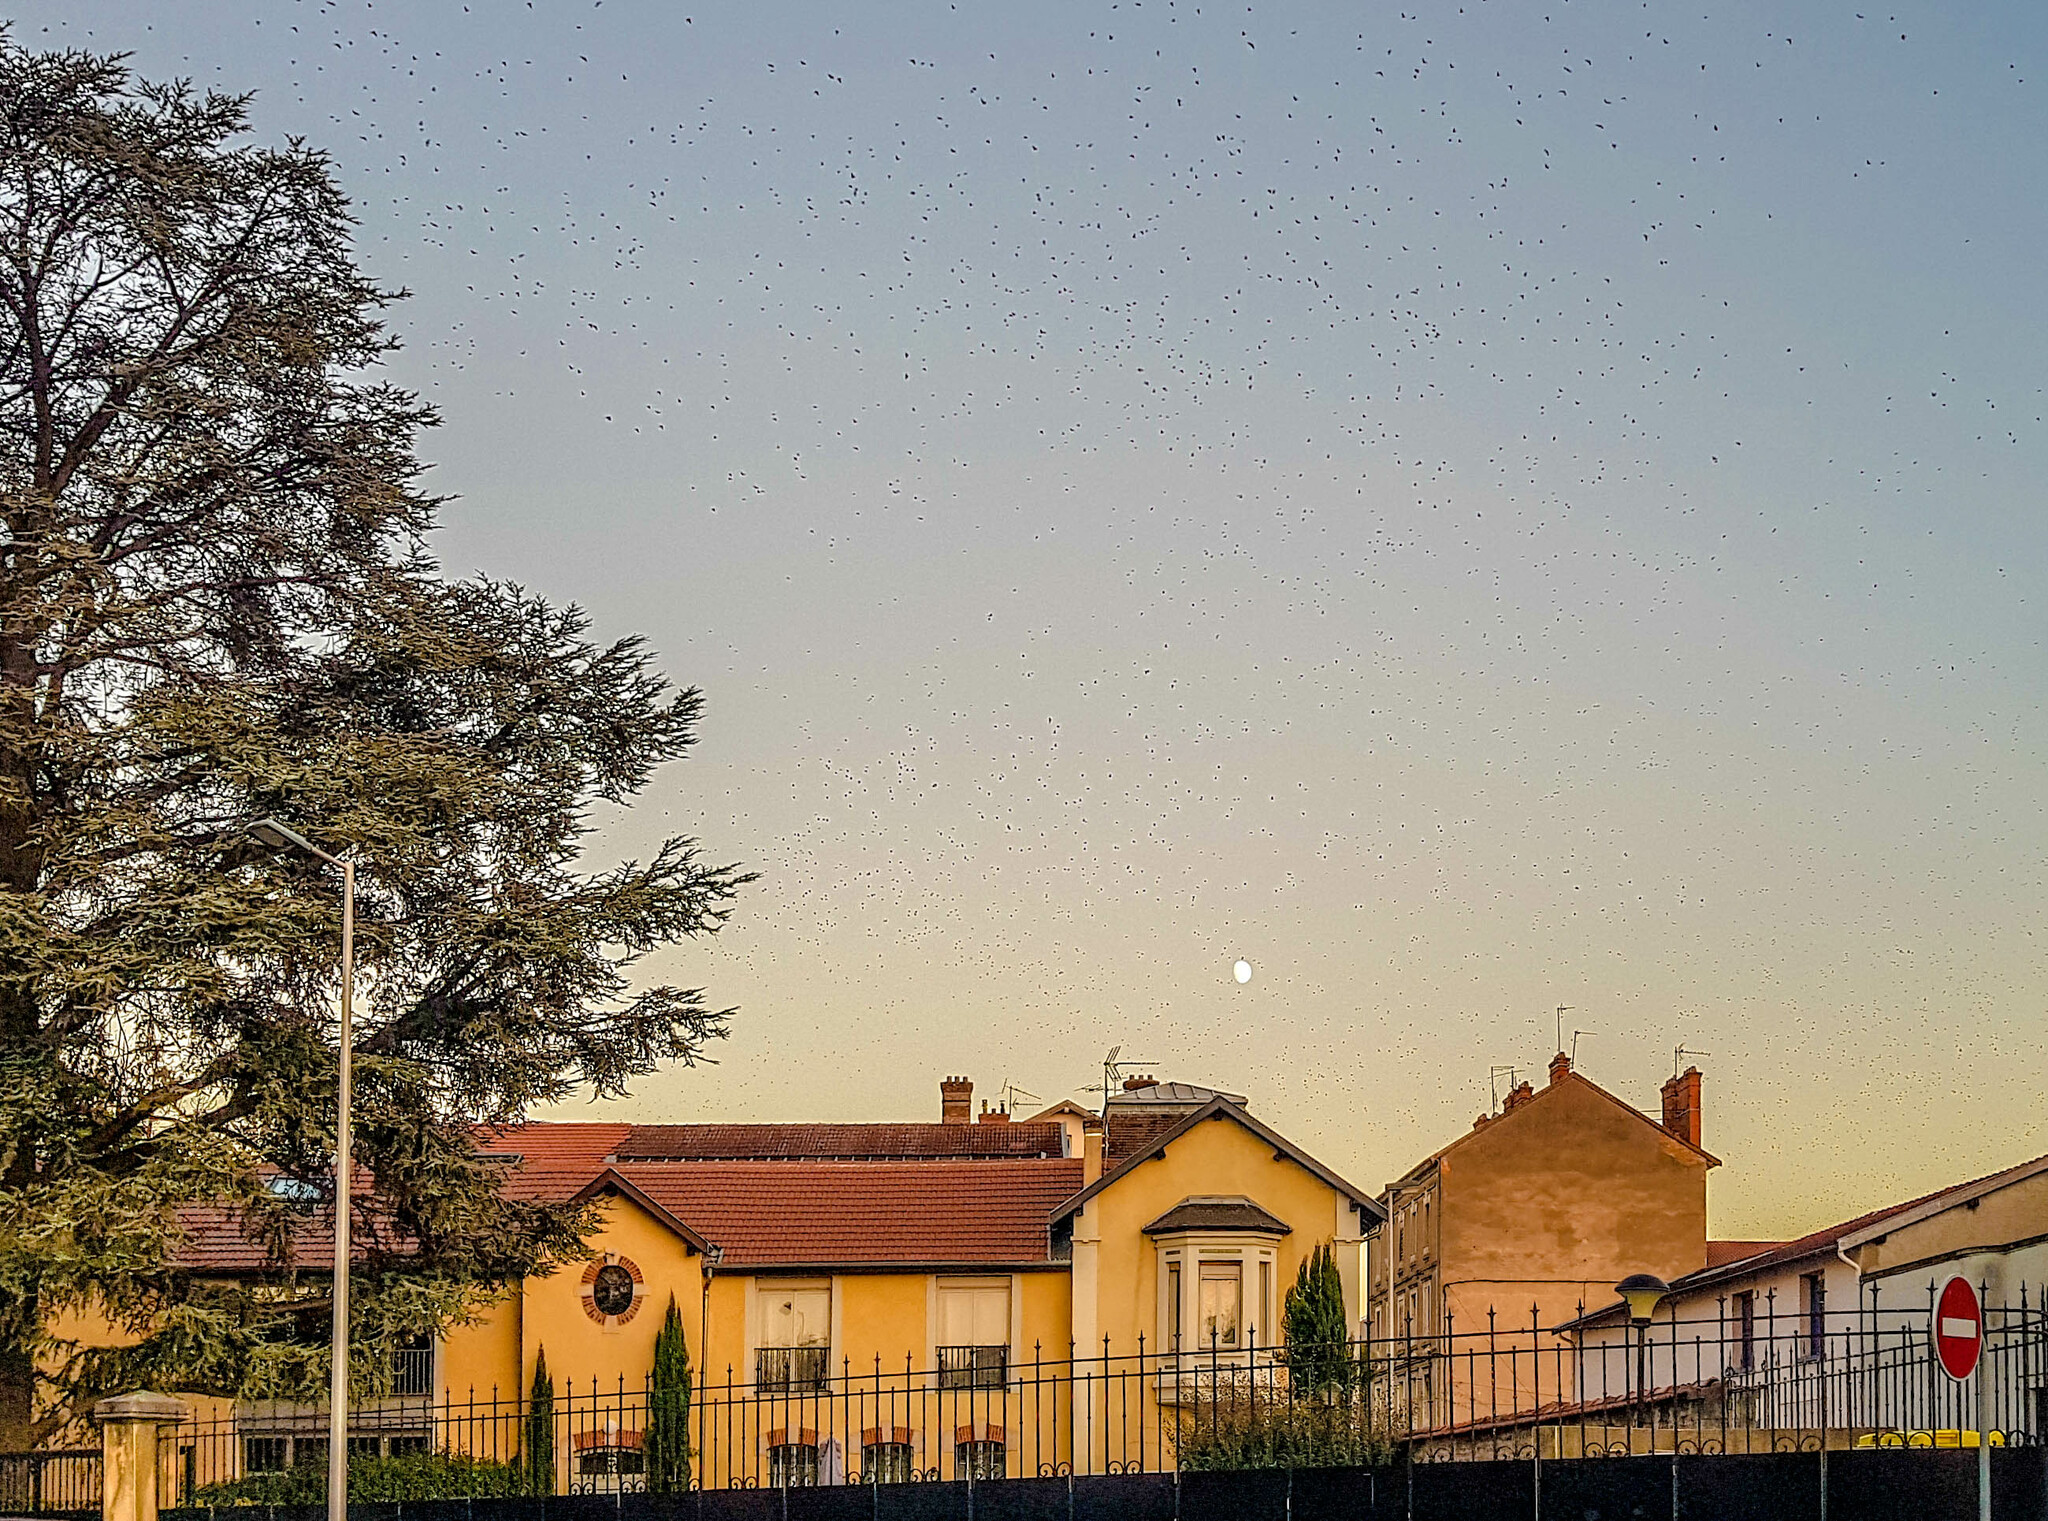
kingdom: Animalia
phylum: Chordata
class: Aves
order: Passeriformes
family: Sturnidae
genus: Sturnus
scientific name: Sturnus vulgaris
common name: Common starling
